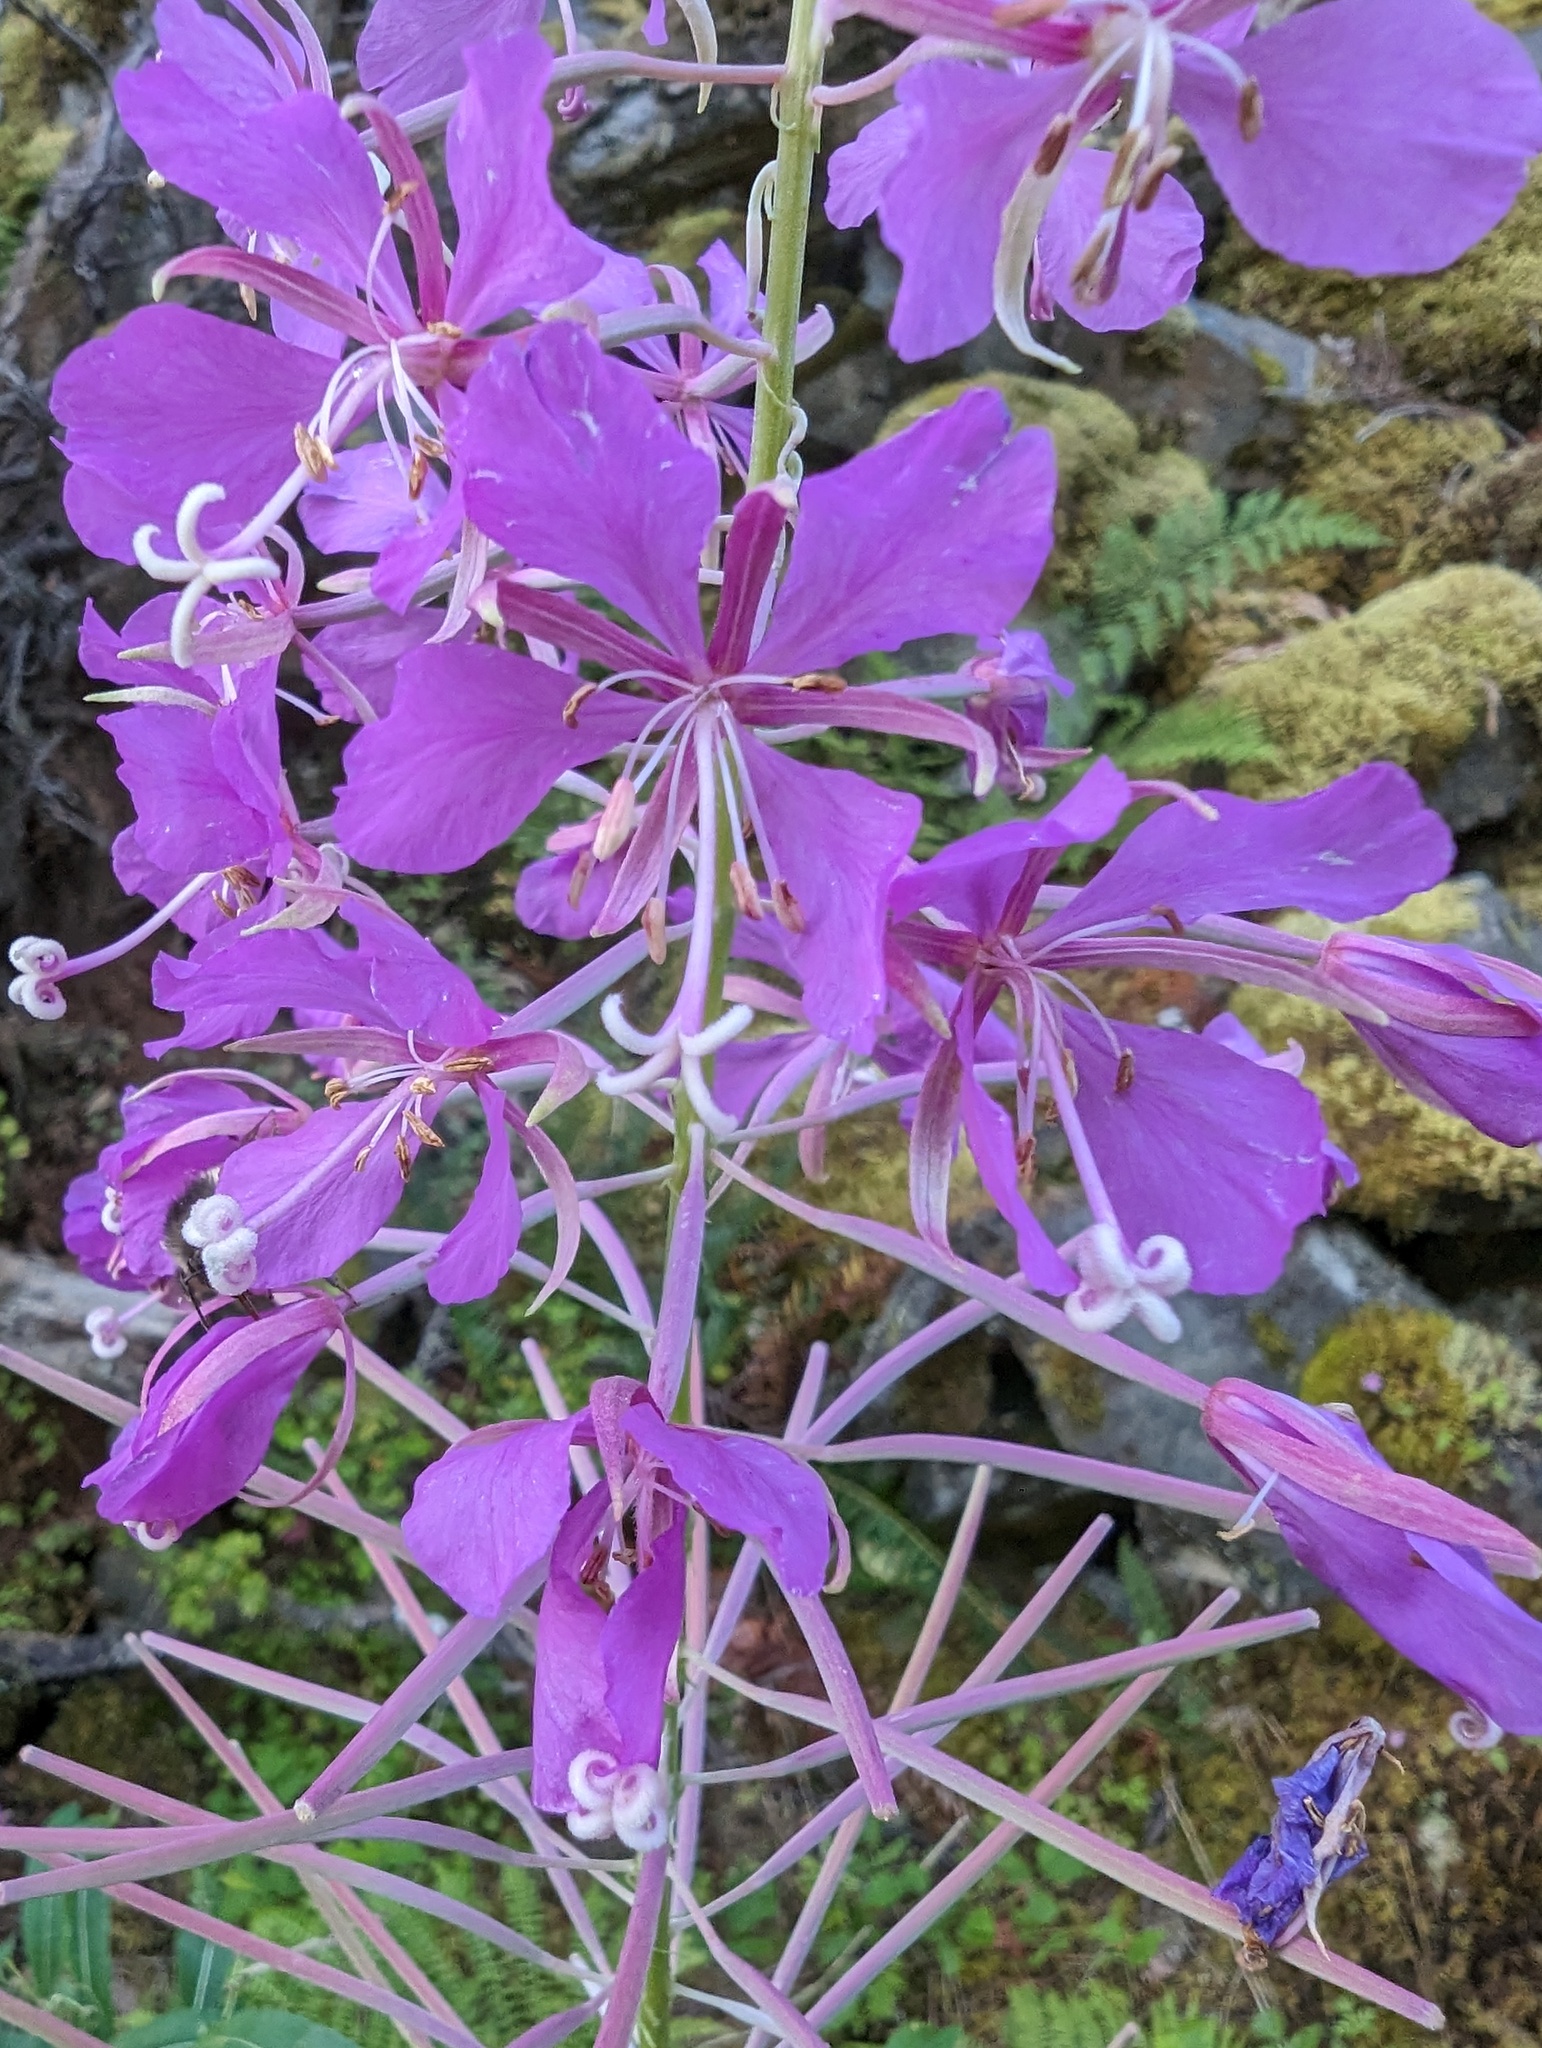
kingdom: Plantae
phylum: Tracheophyta
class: Magnoliopsida
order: Myrtales
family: Onagraceae
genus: Chamaenerion
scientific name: Chamaenerion angustifolium
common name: Fireweed
